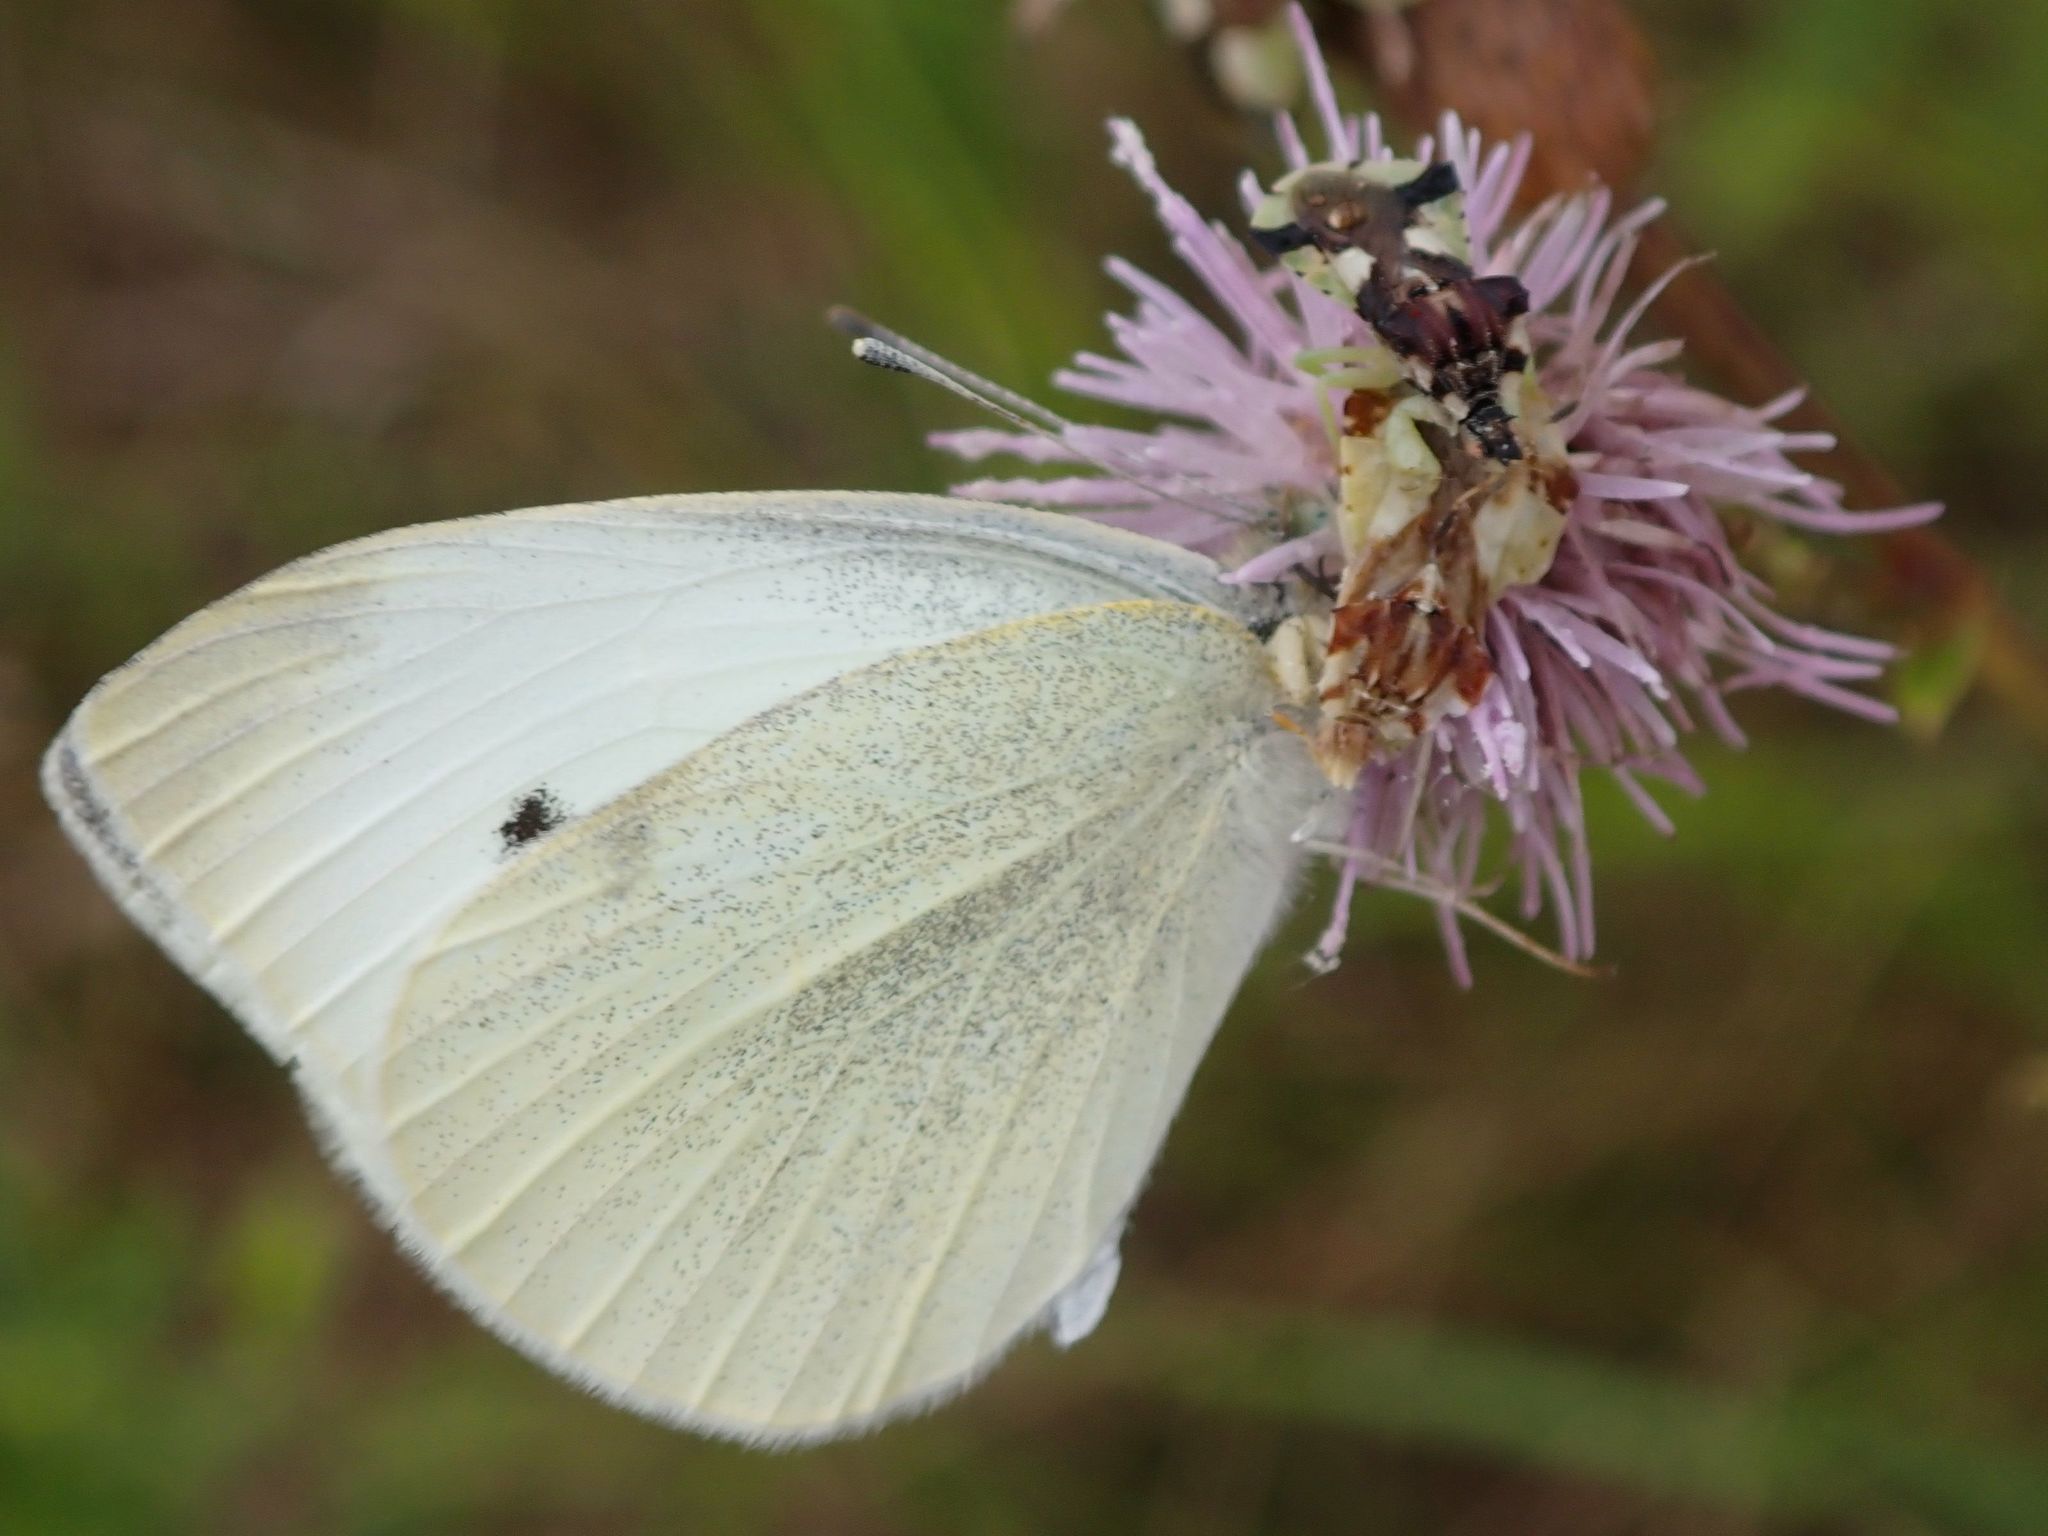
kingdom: Animalia
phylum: Arthropoda
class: Insecta
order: Lepidoptera
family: Pieridae
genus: Pieris
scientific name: Pieris rapae
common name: Small white
